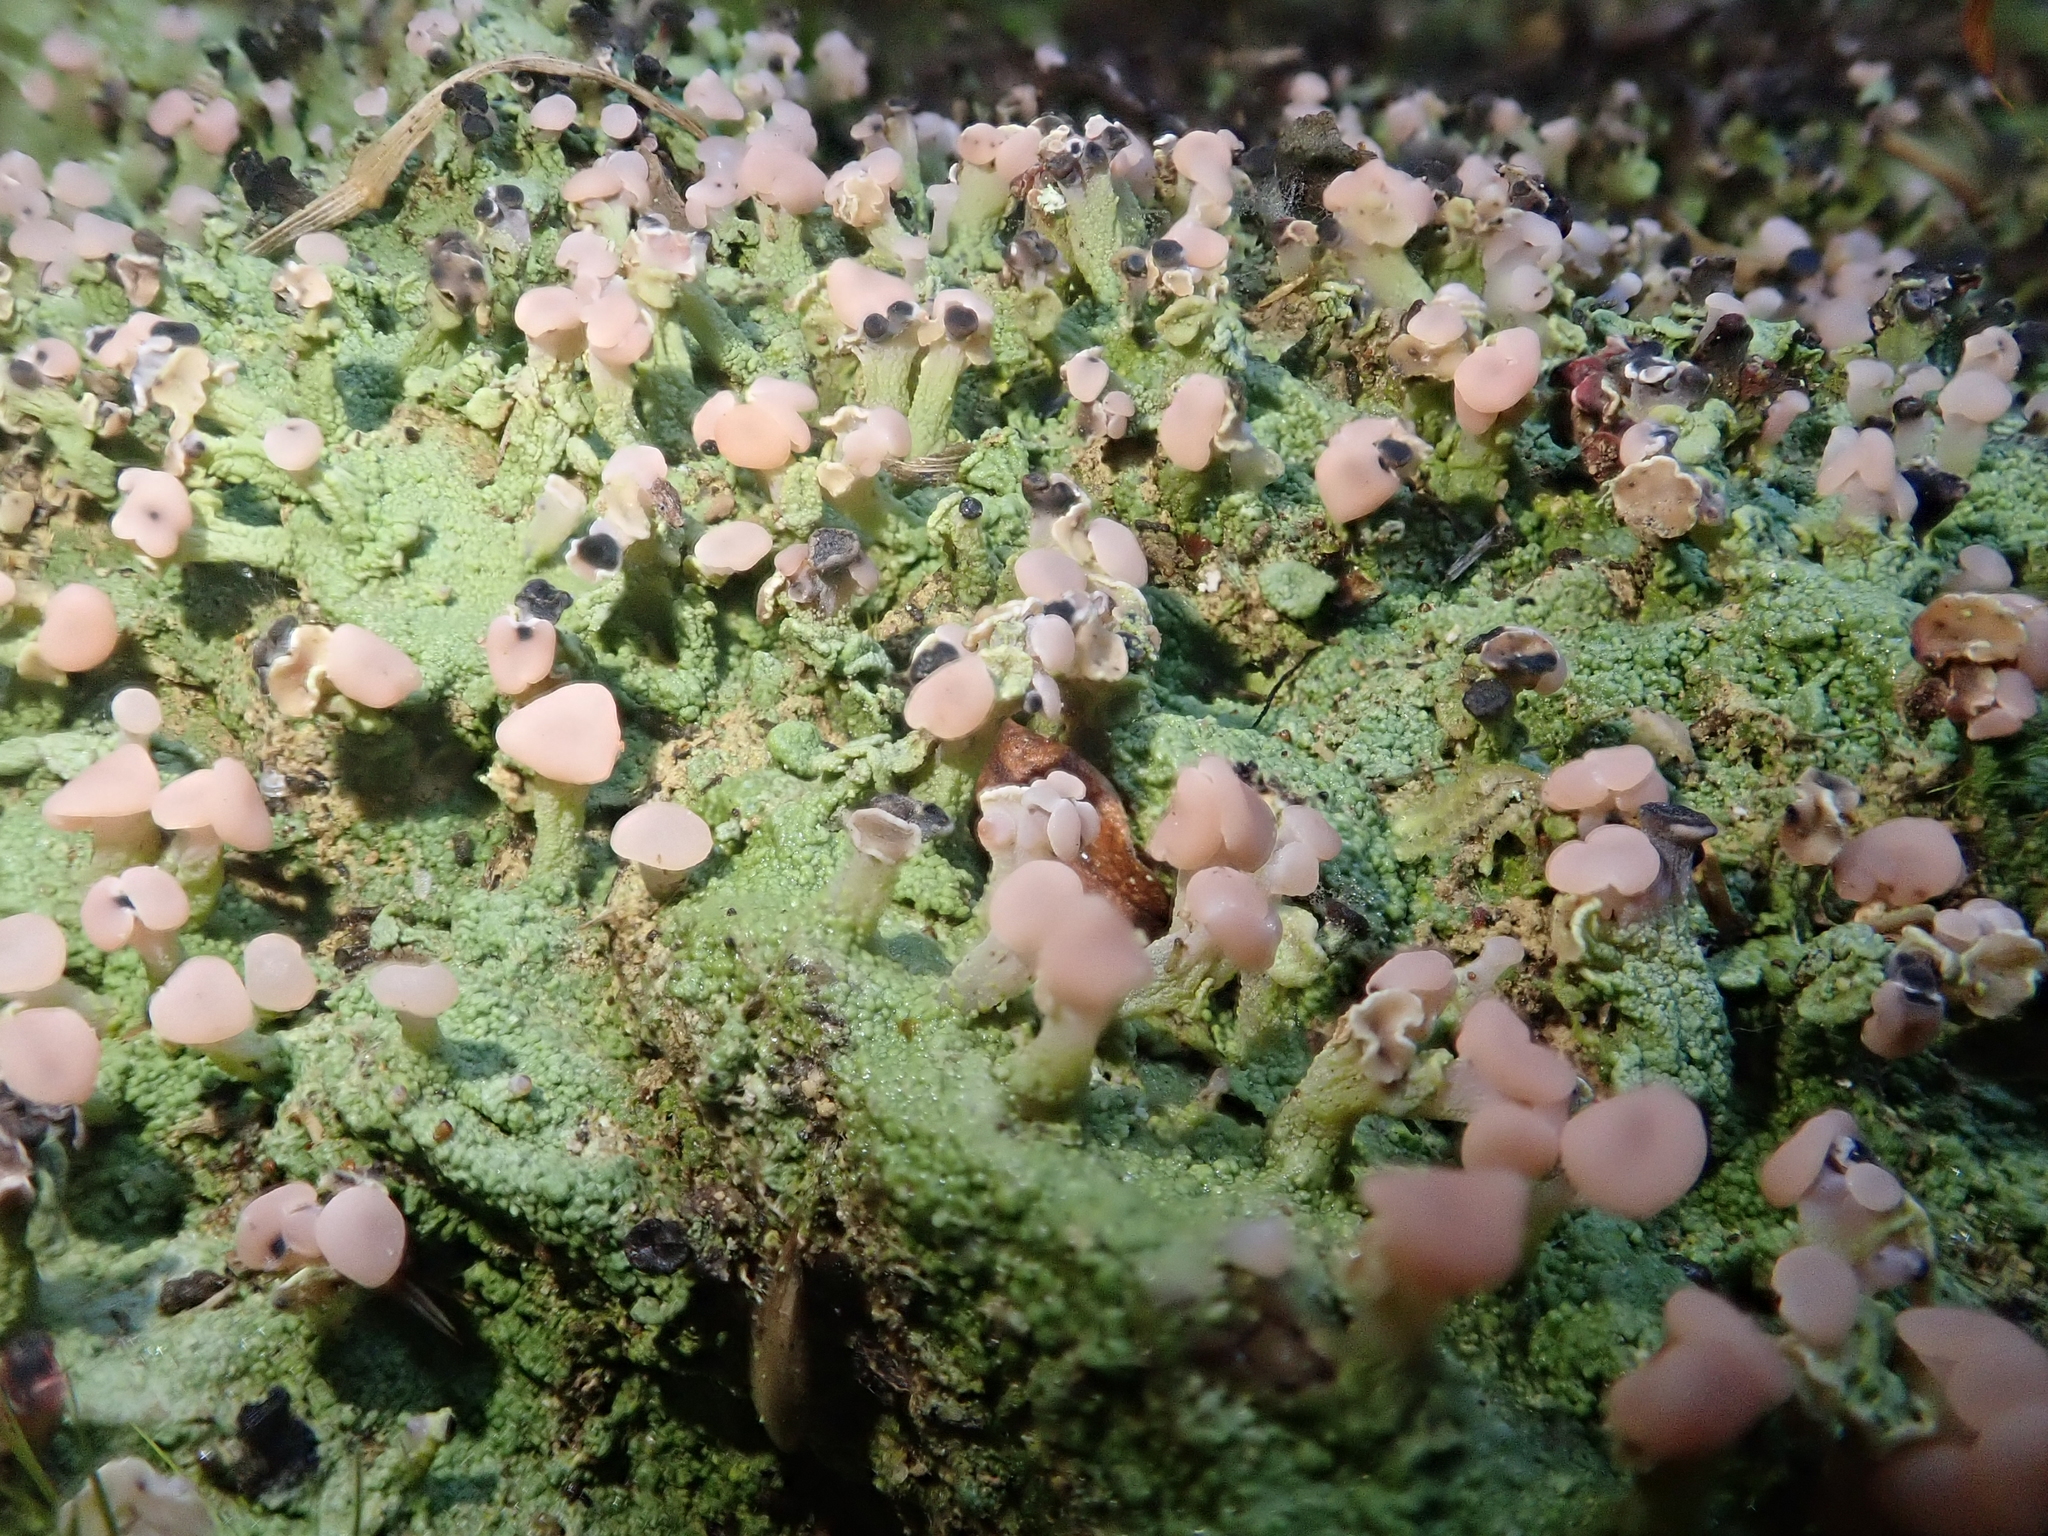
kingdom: Fungi
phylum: Ascomycota
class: Lecanoromycetes
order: Baeomycetales
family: Baeomycetaceae
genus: Baeomyces
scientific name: Baeomyces heteromorphus
